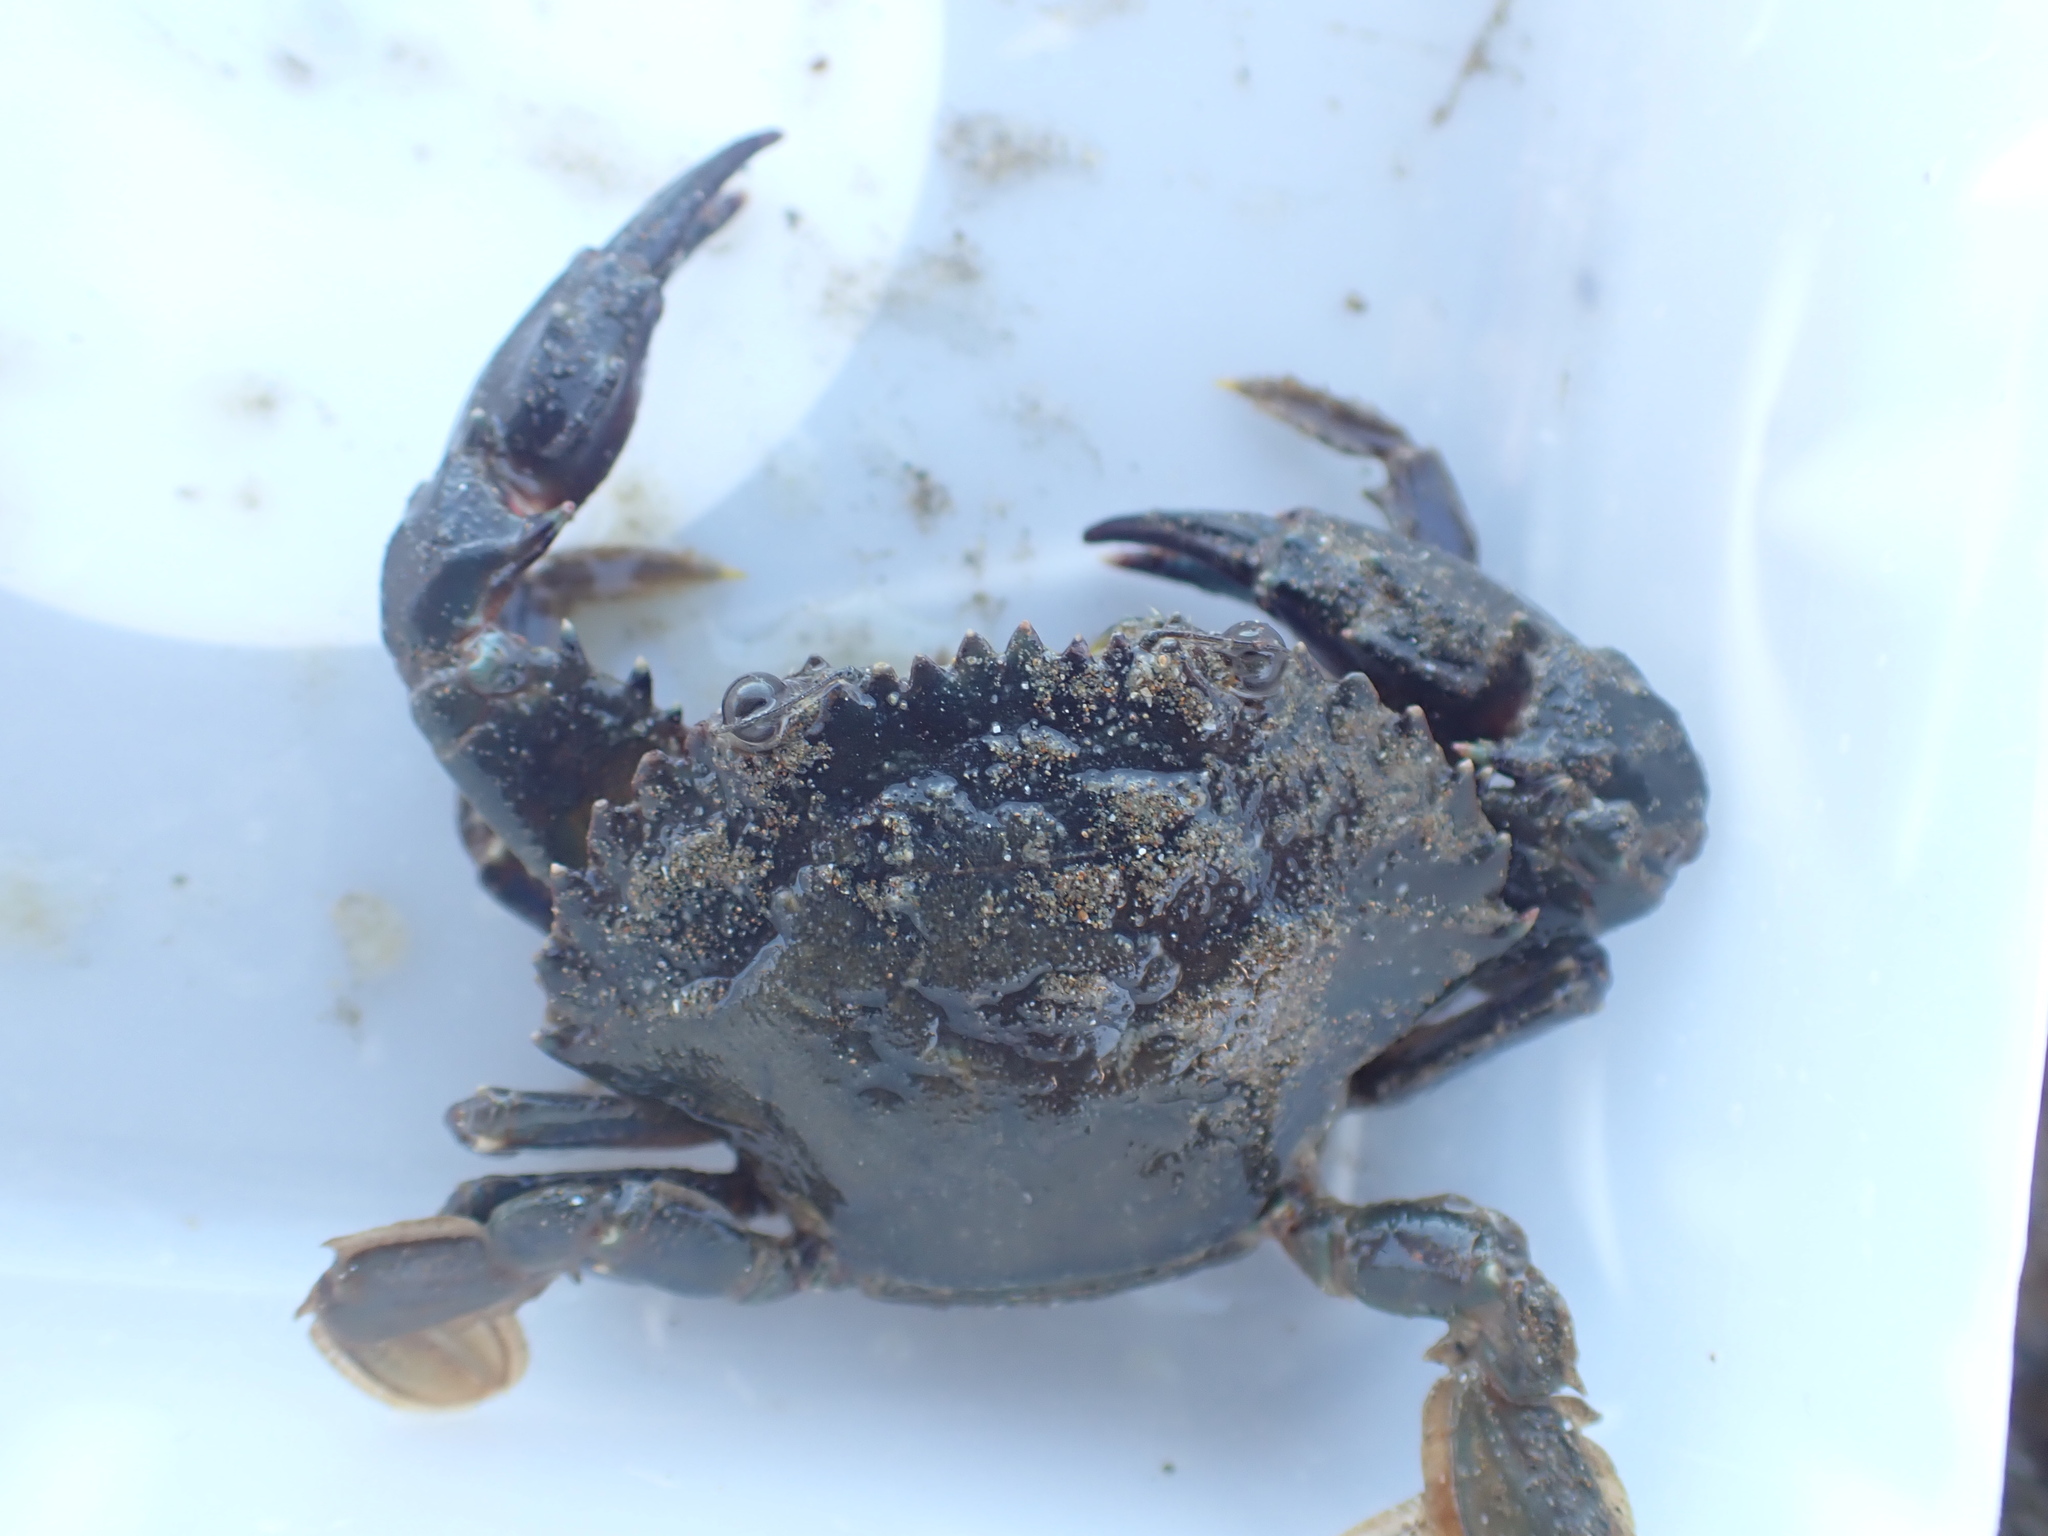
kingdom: Animalia
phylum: Arthropoda
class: Malacostraca
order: Decapoda
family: Portunidae
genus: Charybdis
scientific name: Charybdis japonica
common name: Asian paddle crab
